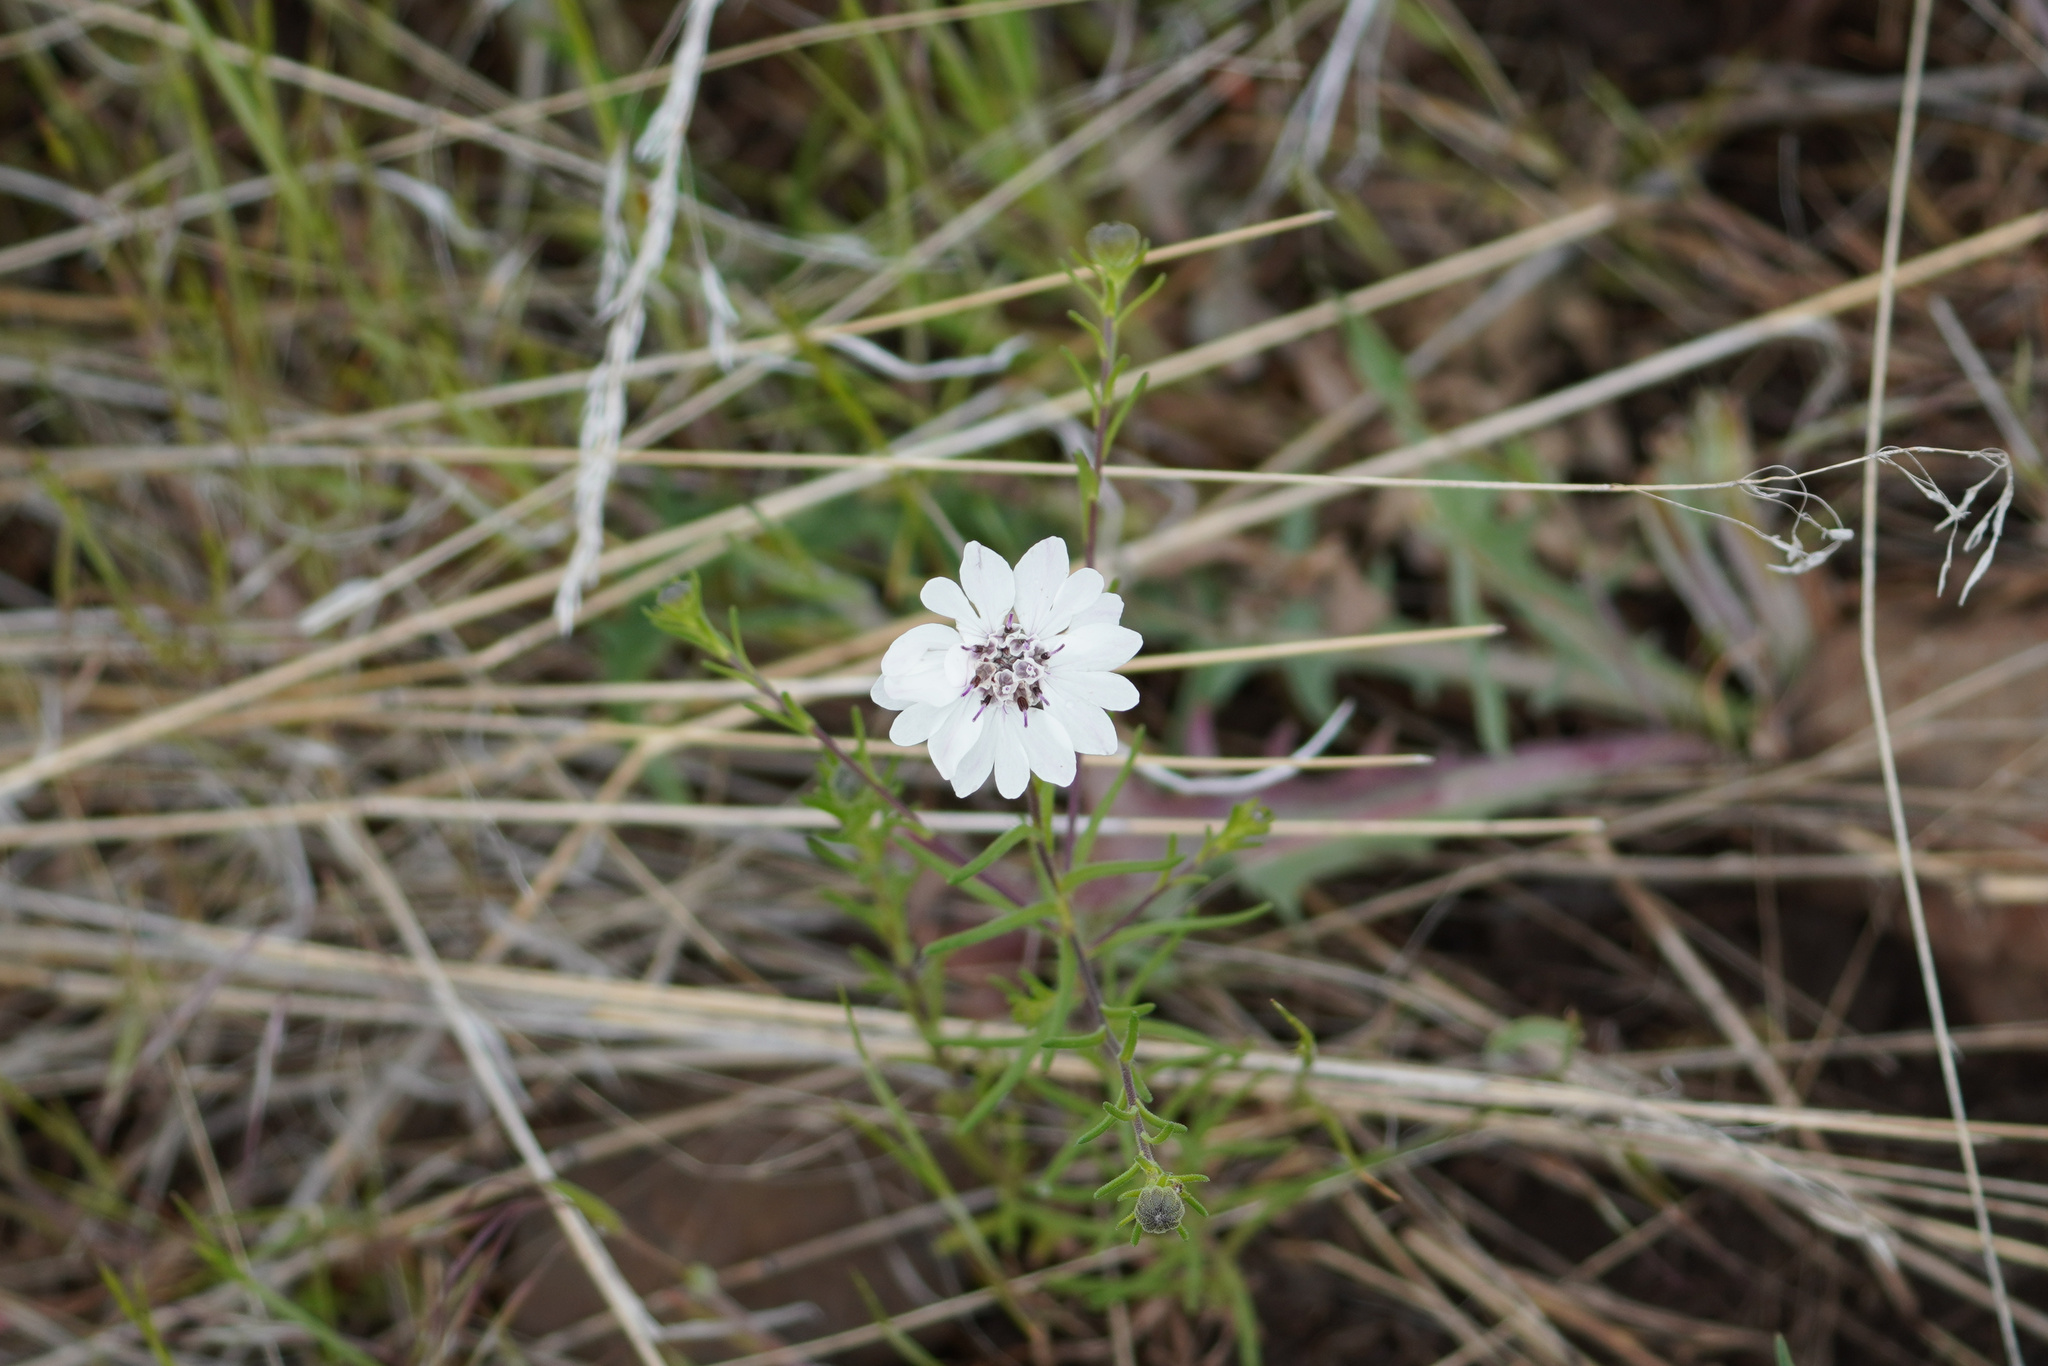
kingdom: Plantae
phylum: Tracheophyta
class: Magnoliopsida
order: Asterales
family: Asteraceae
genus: Blepharipappus
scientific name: Blepharipappus scaber
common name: Rough blepharipappus
